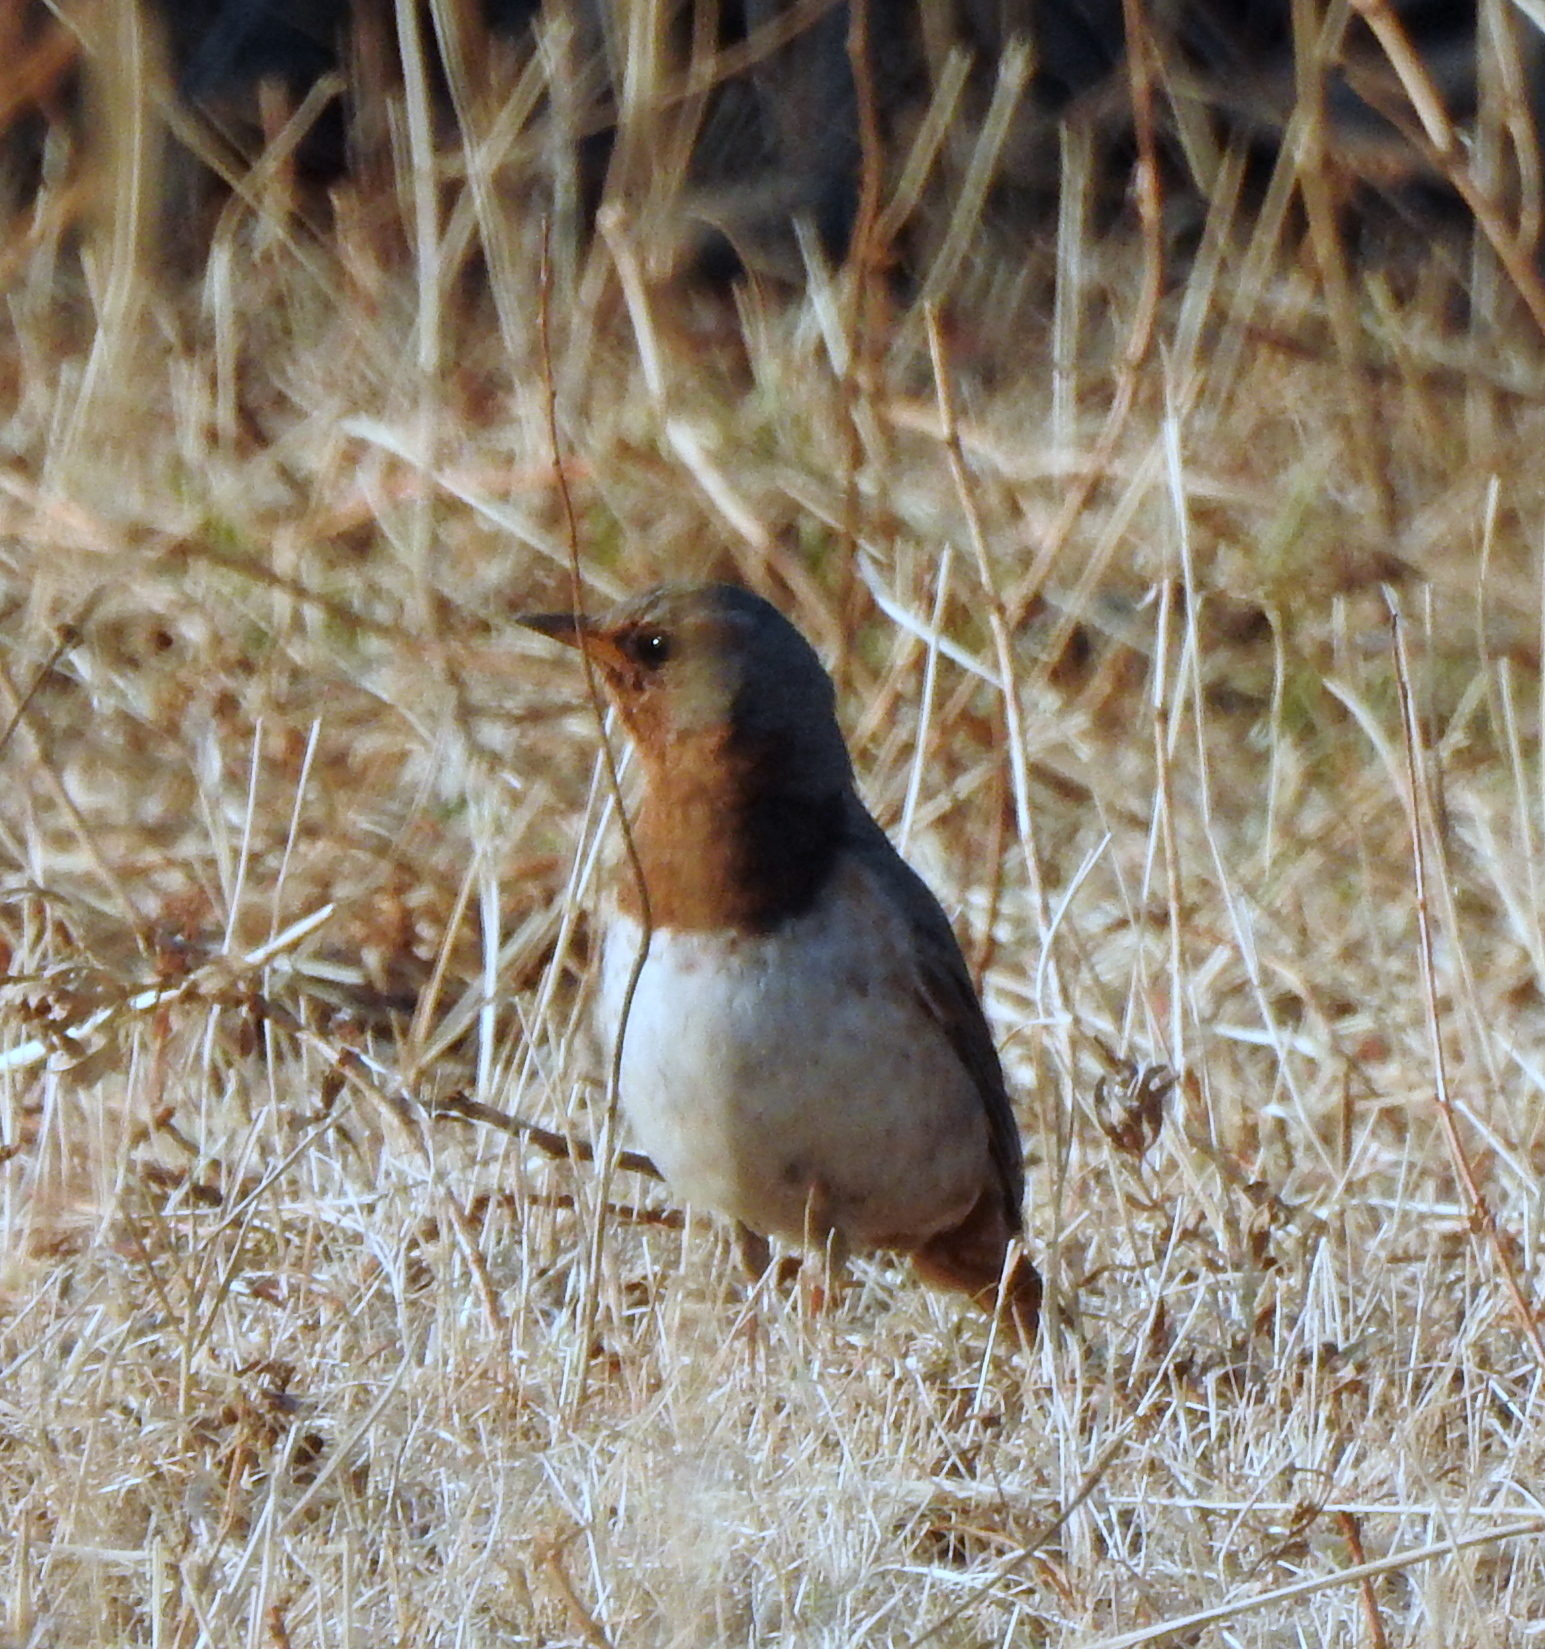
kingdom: Animalia
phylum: Chordata
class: Aves
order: Passeriformes
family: Turdidae
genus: Turdus
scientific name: Turdus ruficollis
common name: Red-throated thrush
